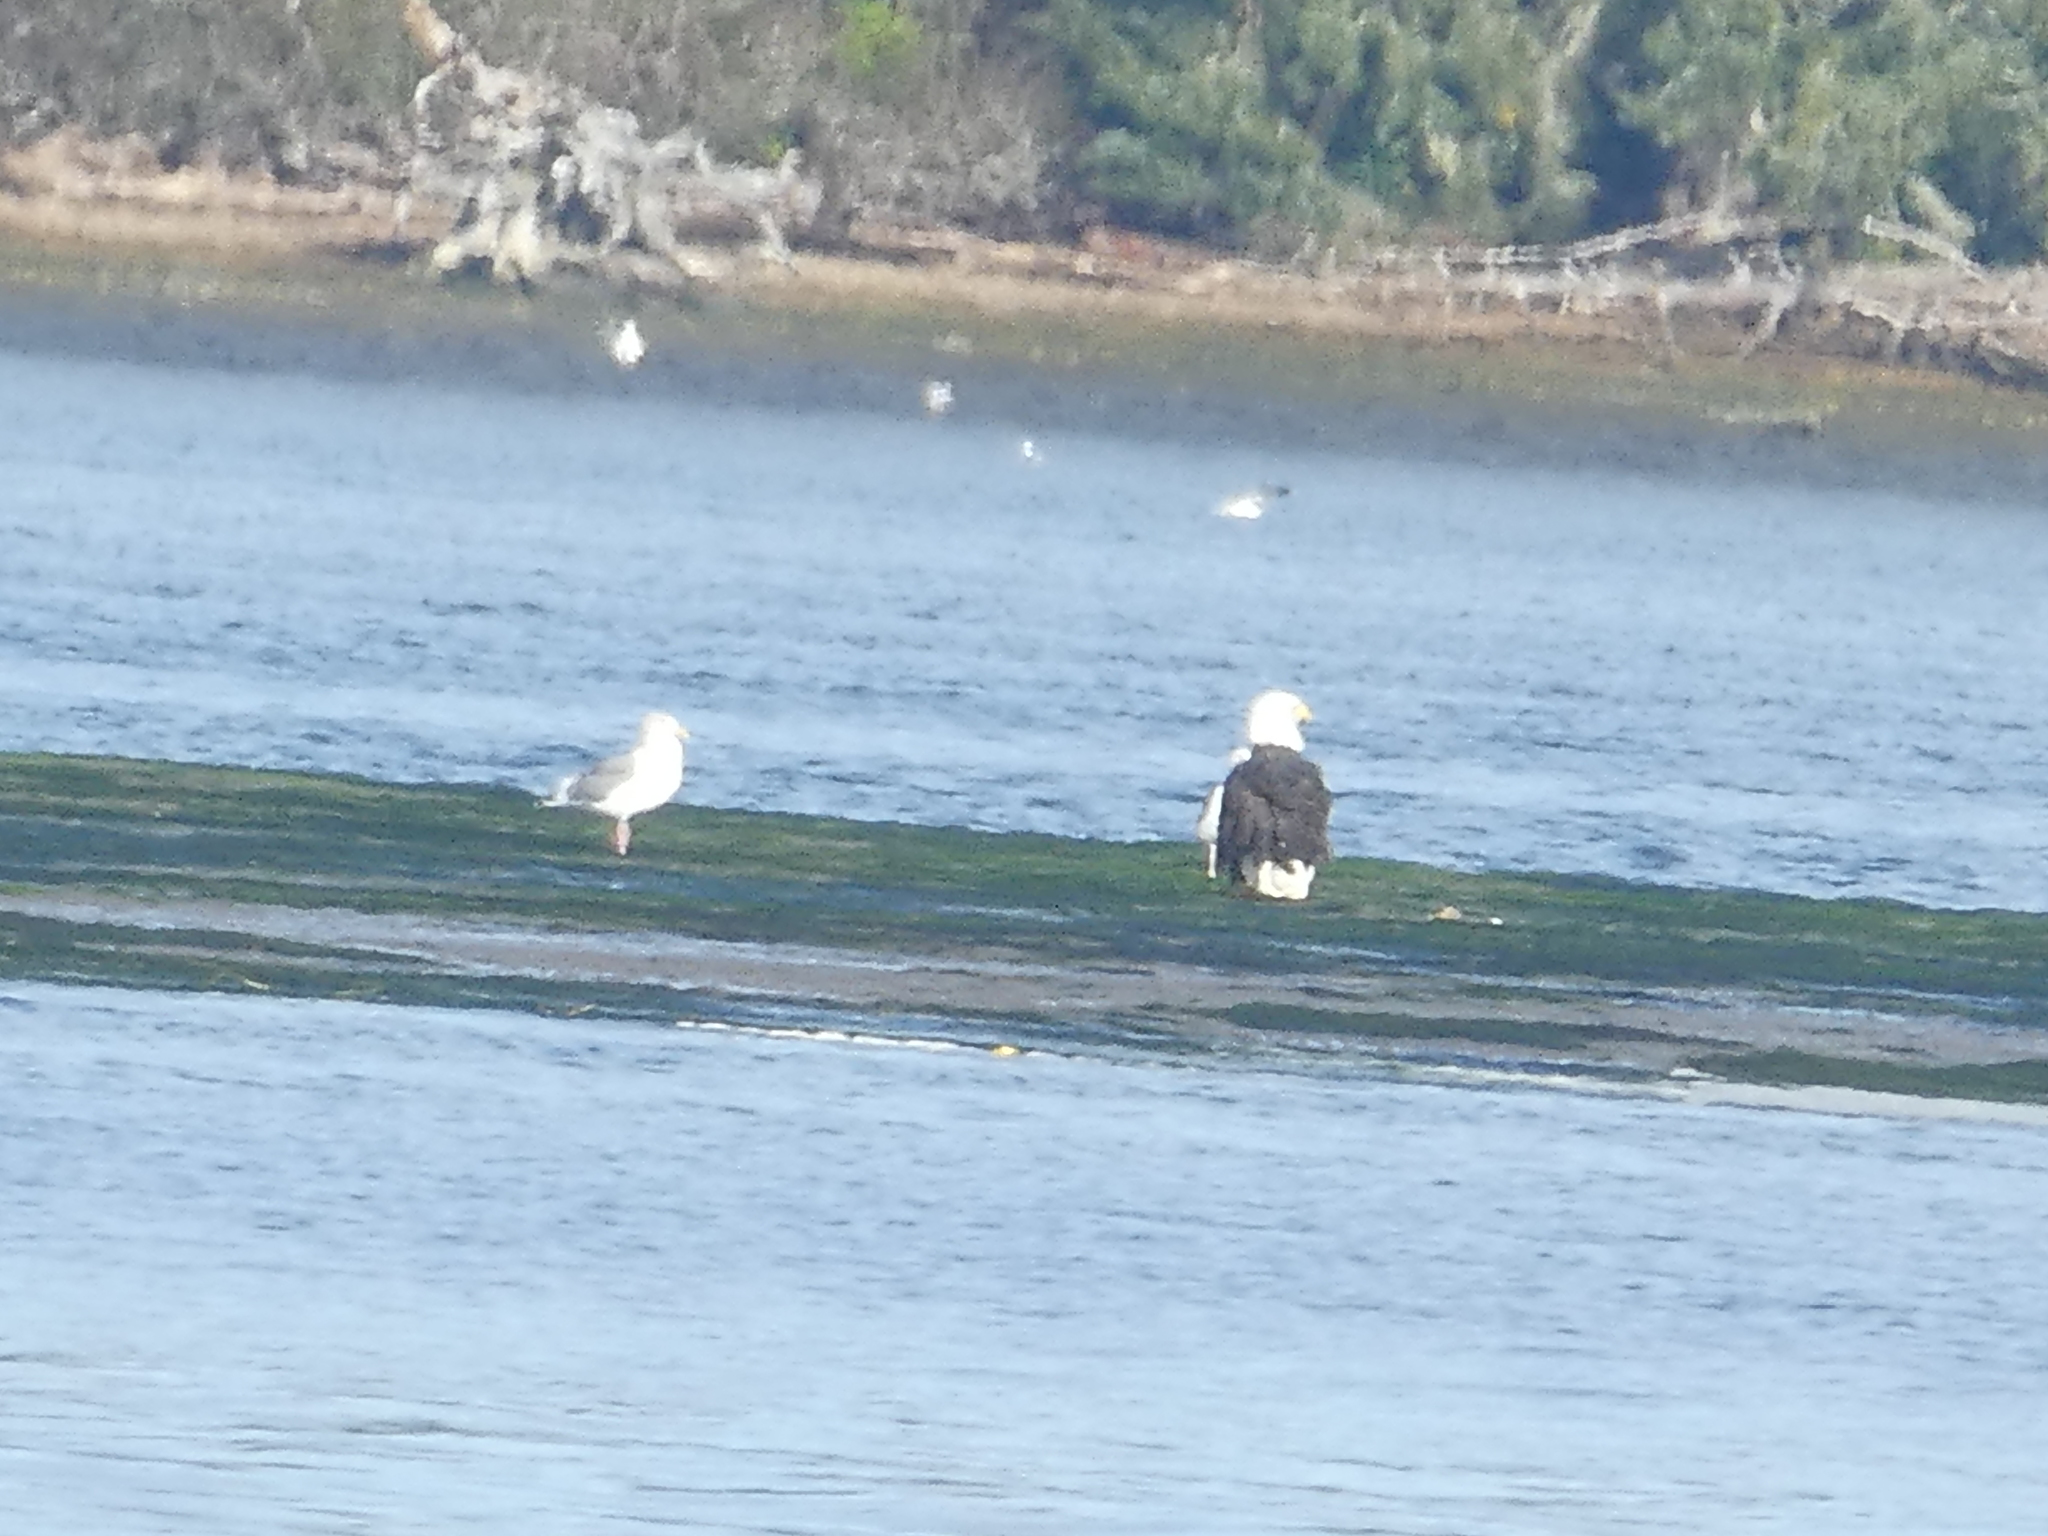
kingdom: Animalia
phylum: Chordata
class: Aves
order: Accipitriformes
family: Accipitridae
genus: Haliaeetus
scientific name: Haliaeetus leucocephalus
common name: Bald eagle
